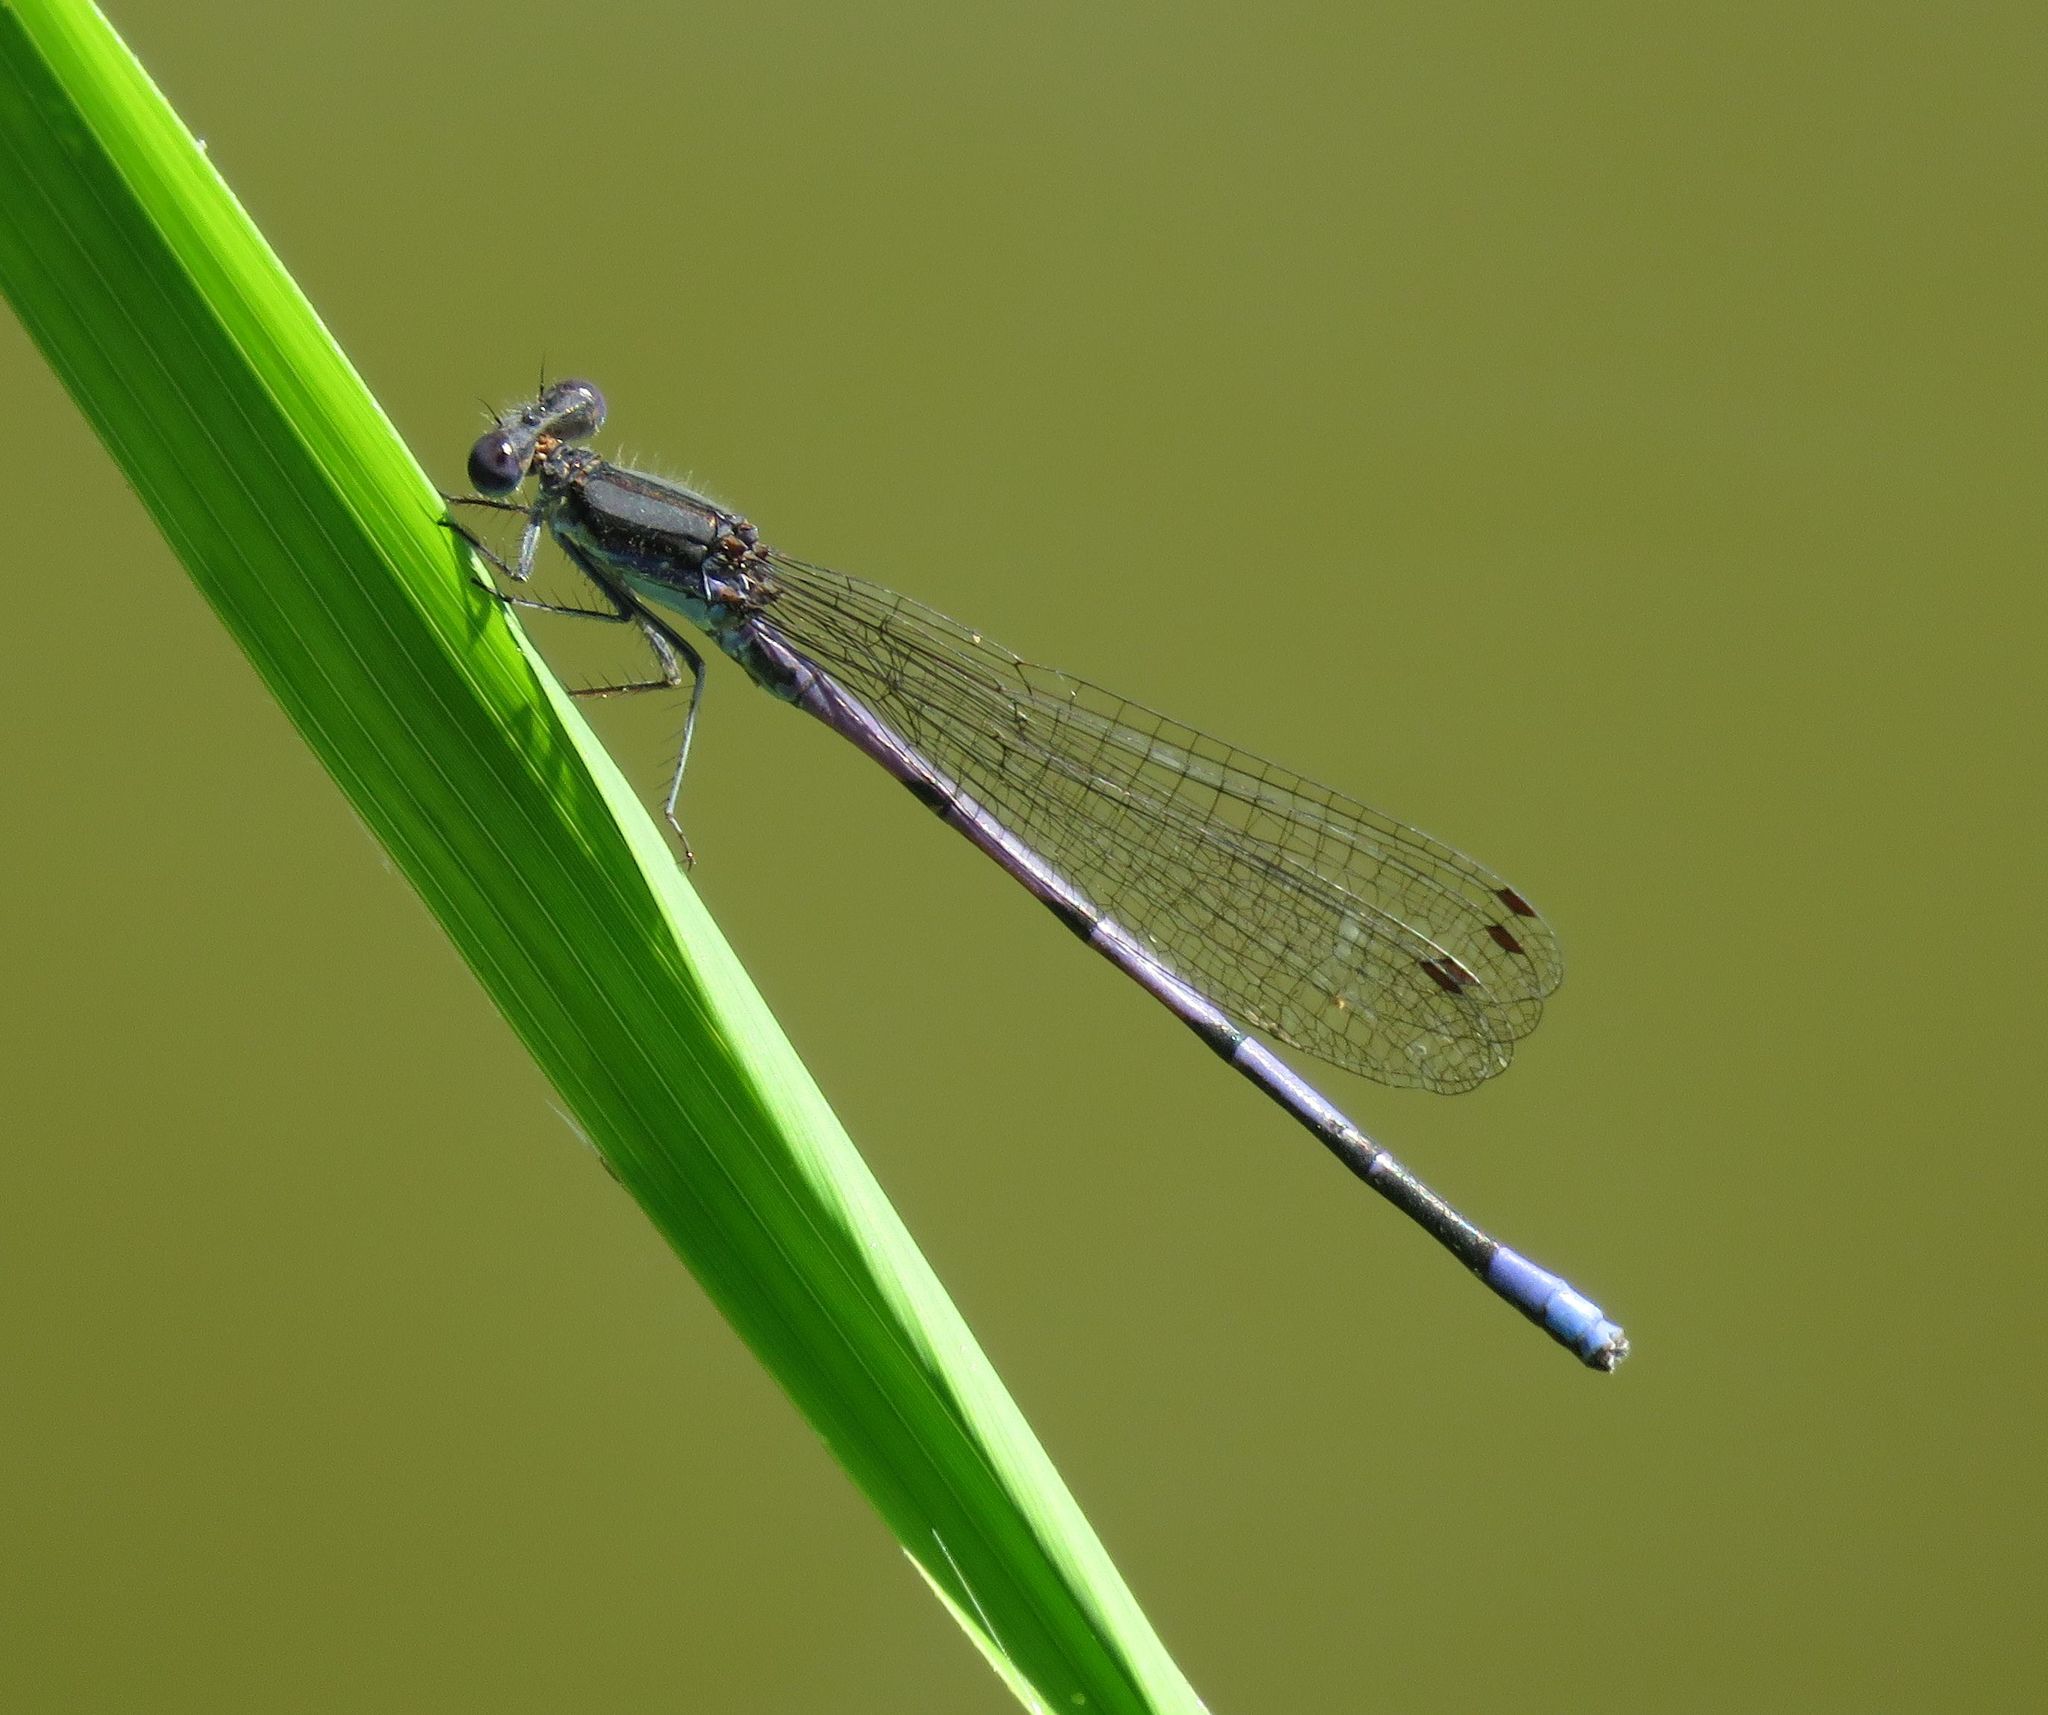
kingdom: Animalia
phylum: Arthropoda
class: Insecta
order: Odonata
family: Coenagrionidae
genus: Argia
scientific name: Argia fumipennis
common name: Variable dancer
